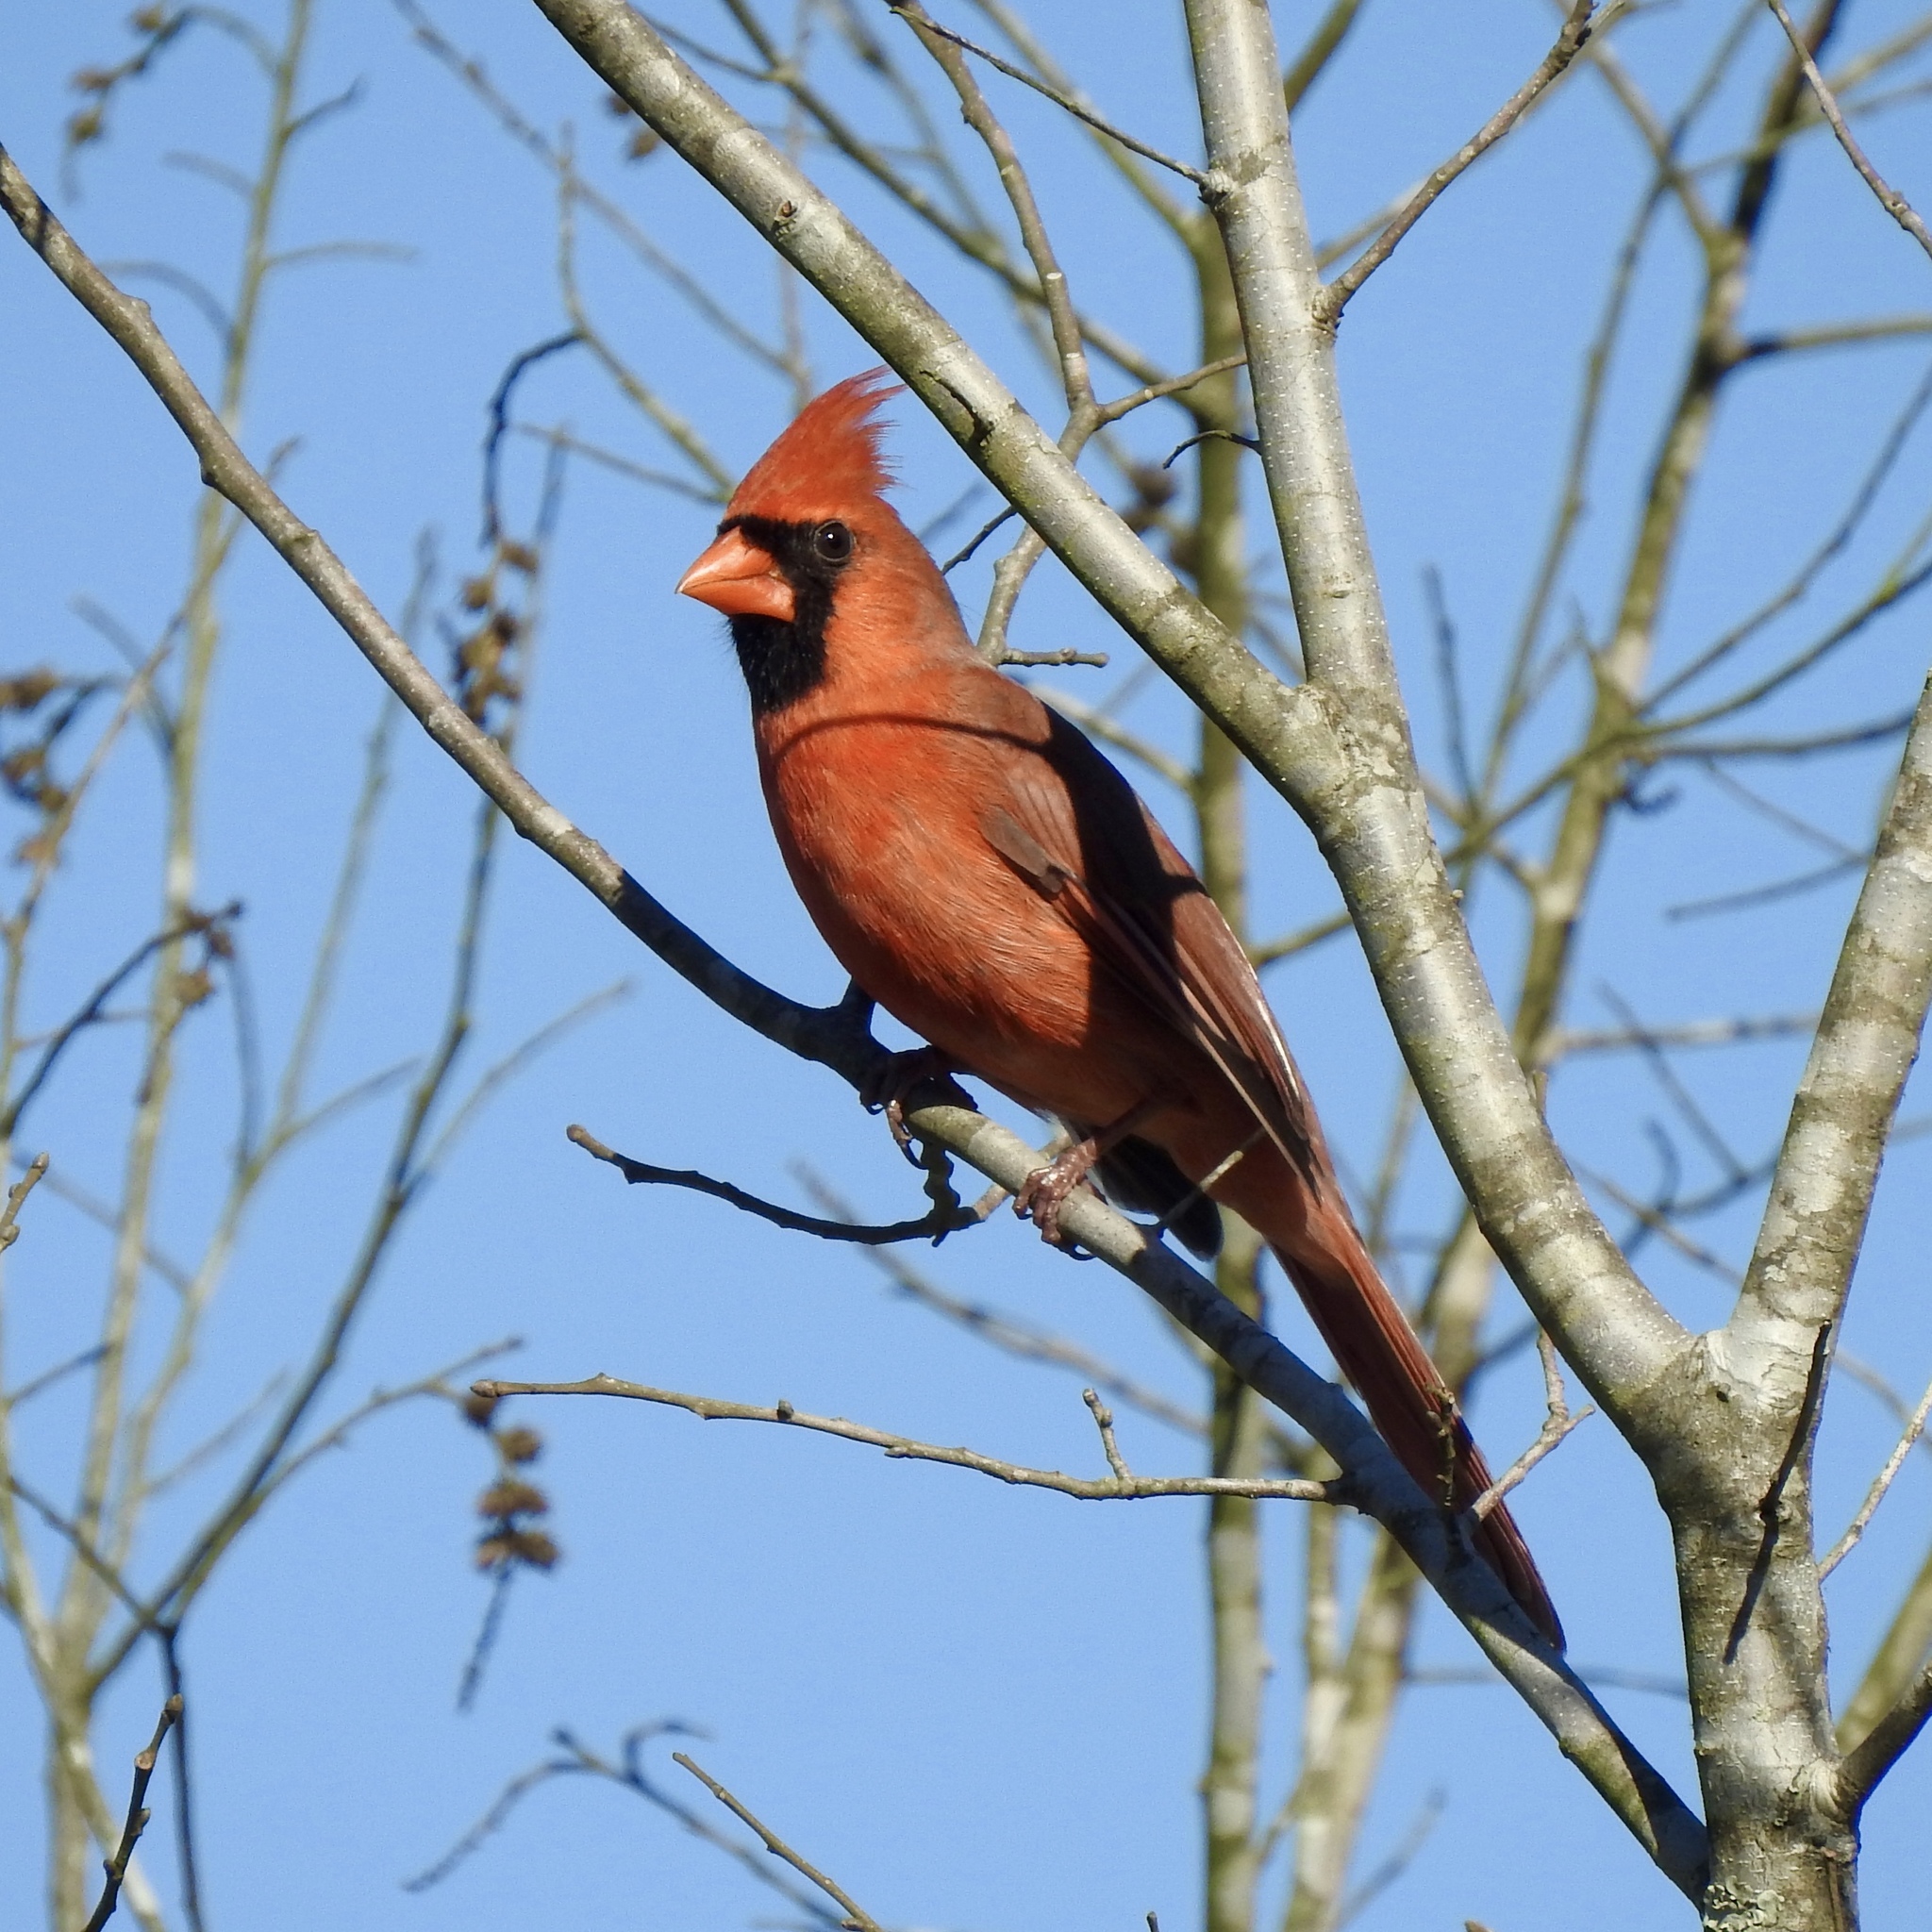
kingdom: Animalia
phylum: Chordata
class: Aves
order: Passeriformes
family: Cardinalidae
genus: Cardinalis
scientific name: Cardinalis cardinalis
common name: Northern cardinal
